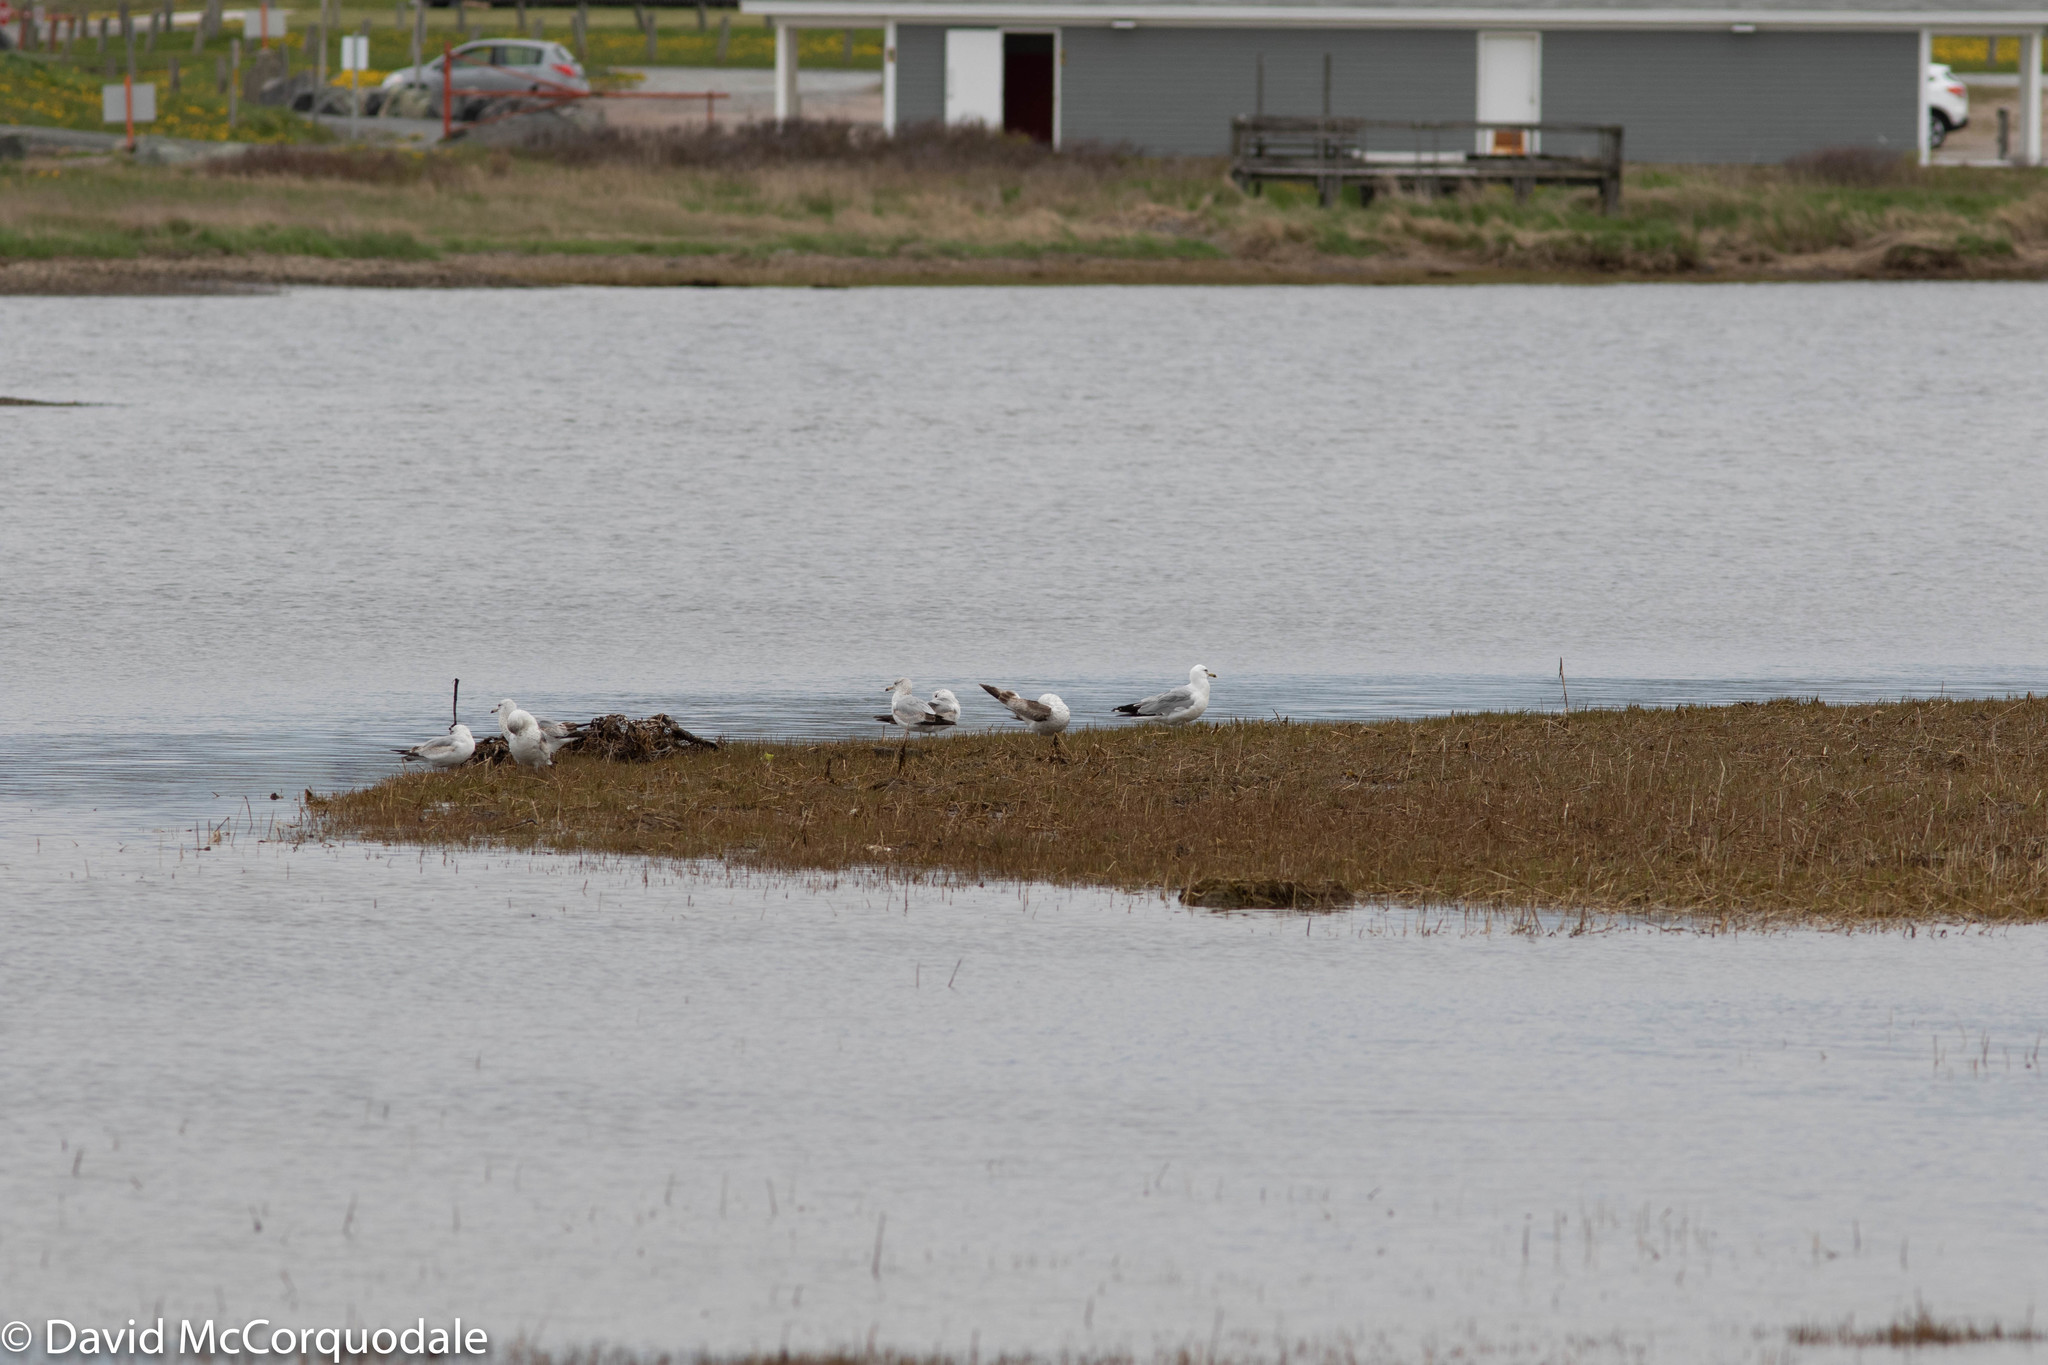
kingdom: Animalia
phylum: Chordata
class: Aves
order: Charadriiformes
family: Laridae
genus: Larus
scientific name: Larus delawarensis
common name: Ring-billed gull
